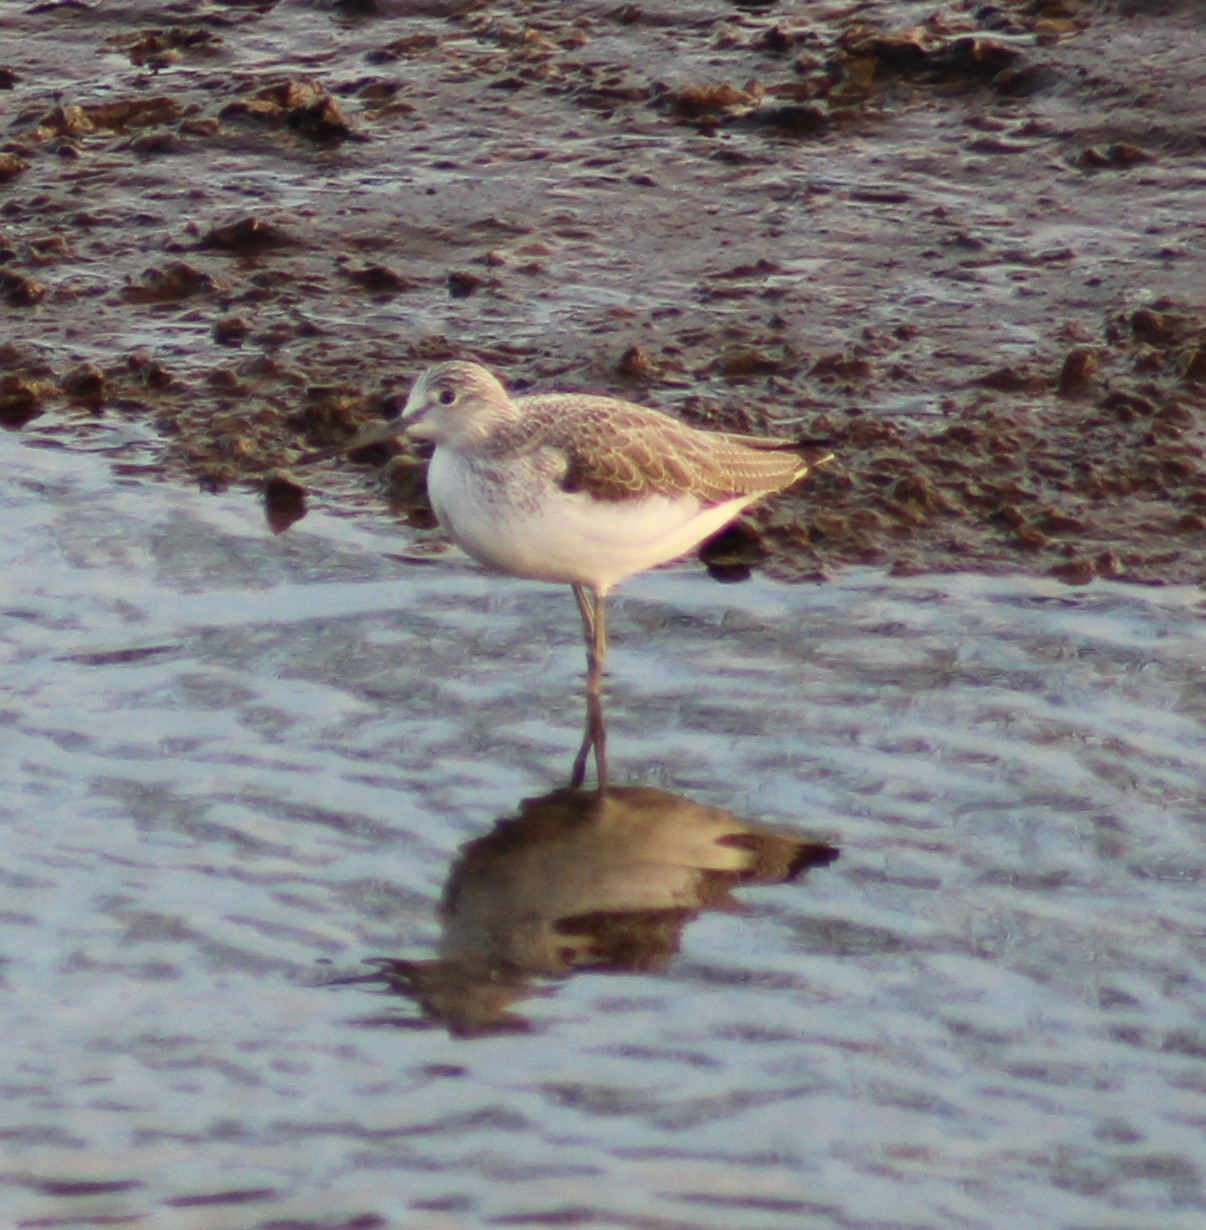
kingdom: Animalia
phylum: Chordata
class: Aves
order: Charadriiformes
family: Scolopacidae
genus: Tringa
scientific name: Tringa nebularia
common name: Common greenshank
